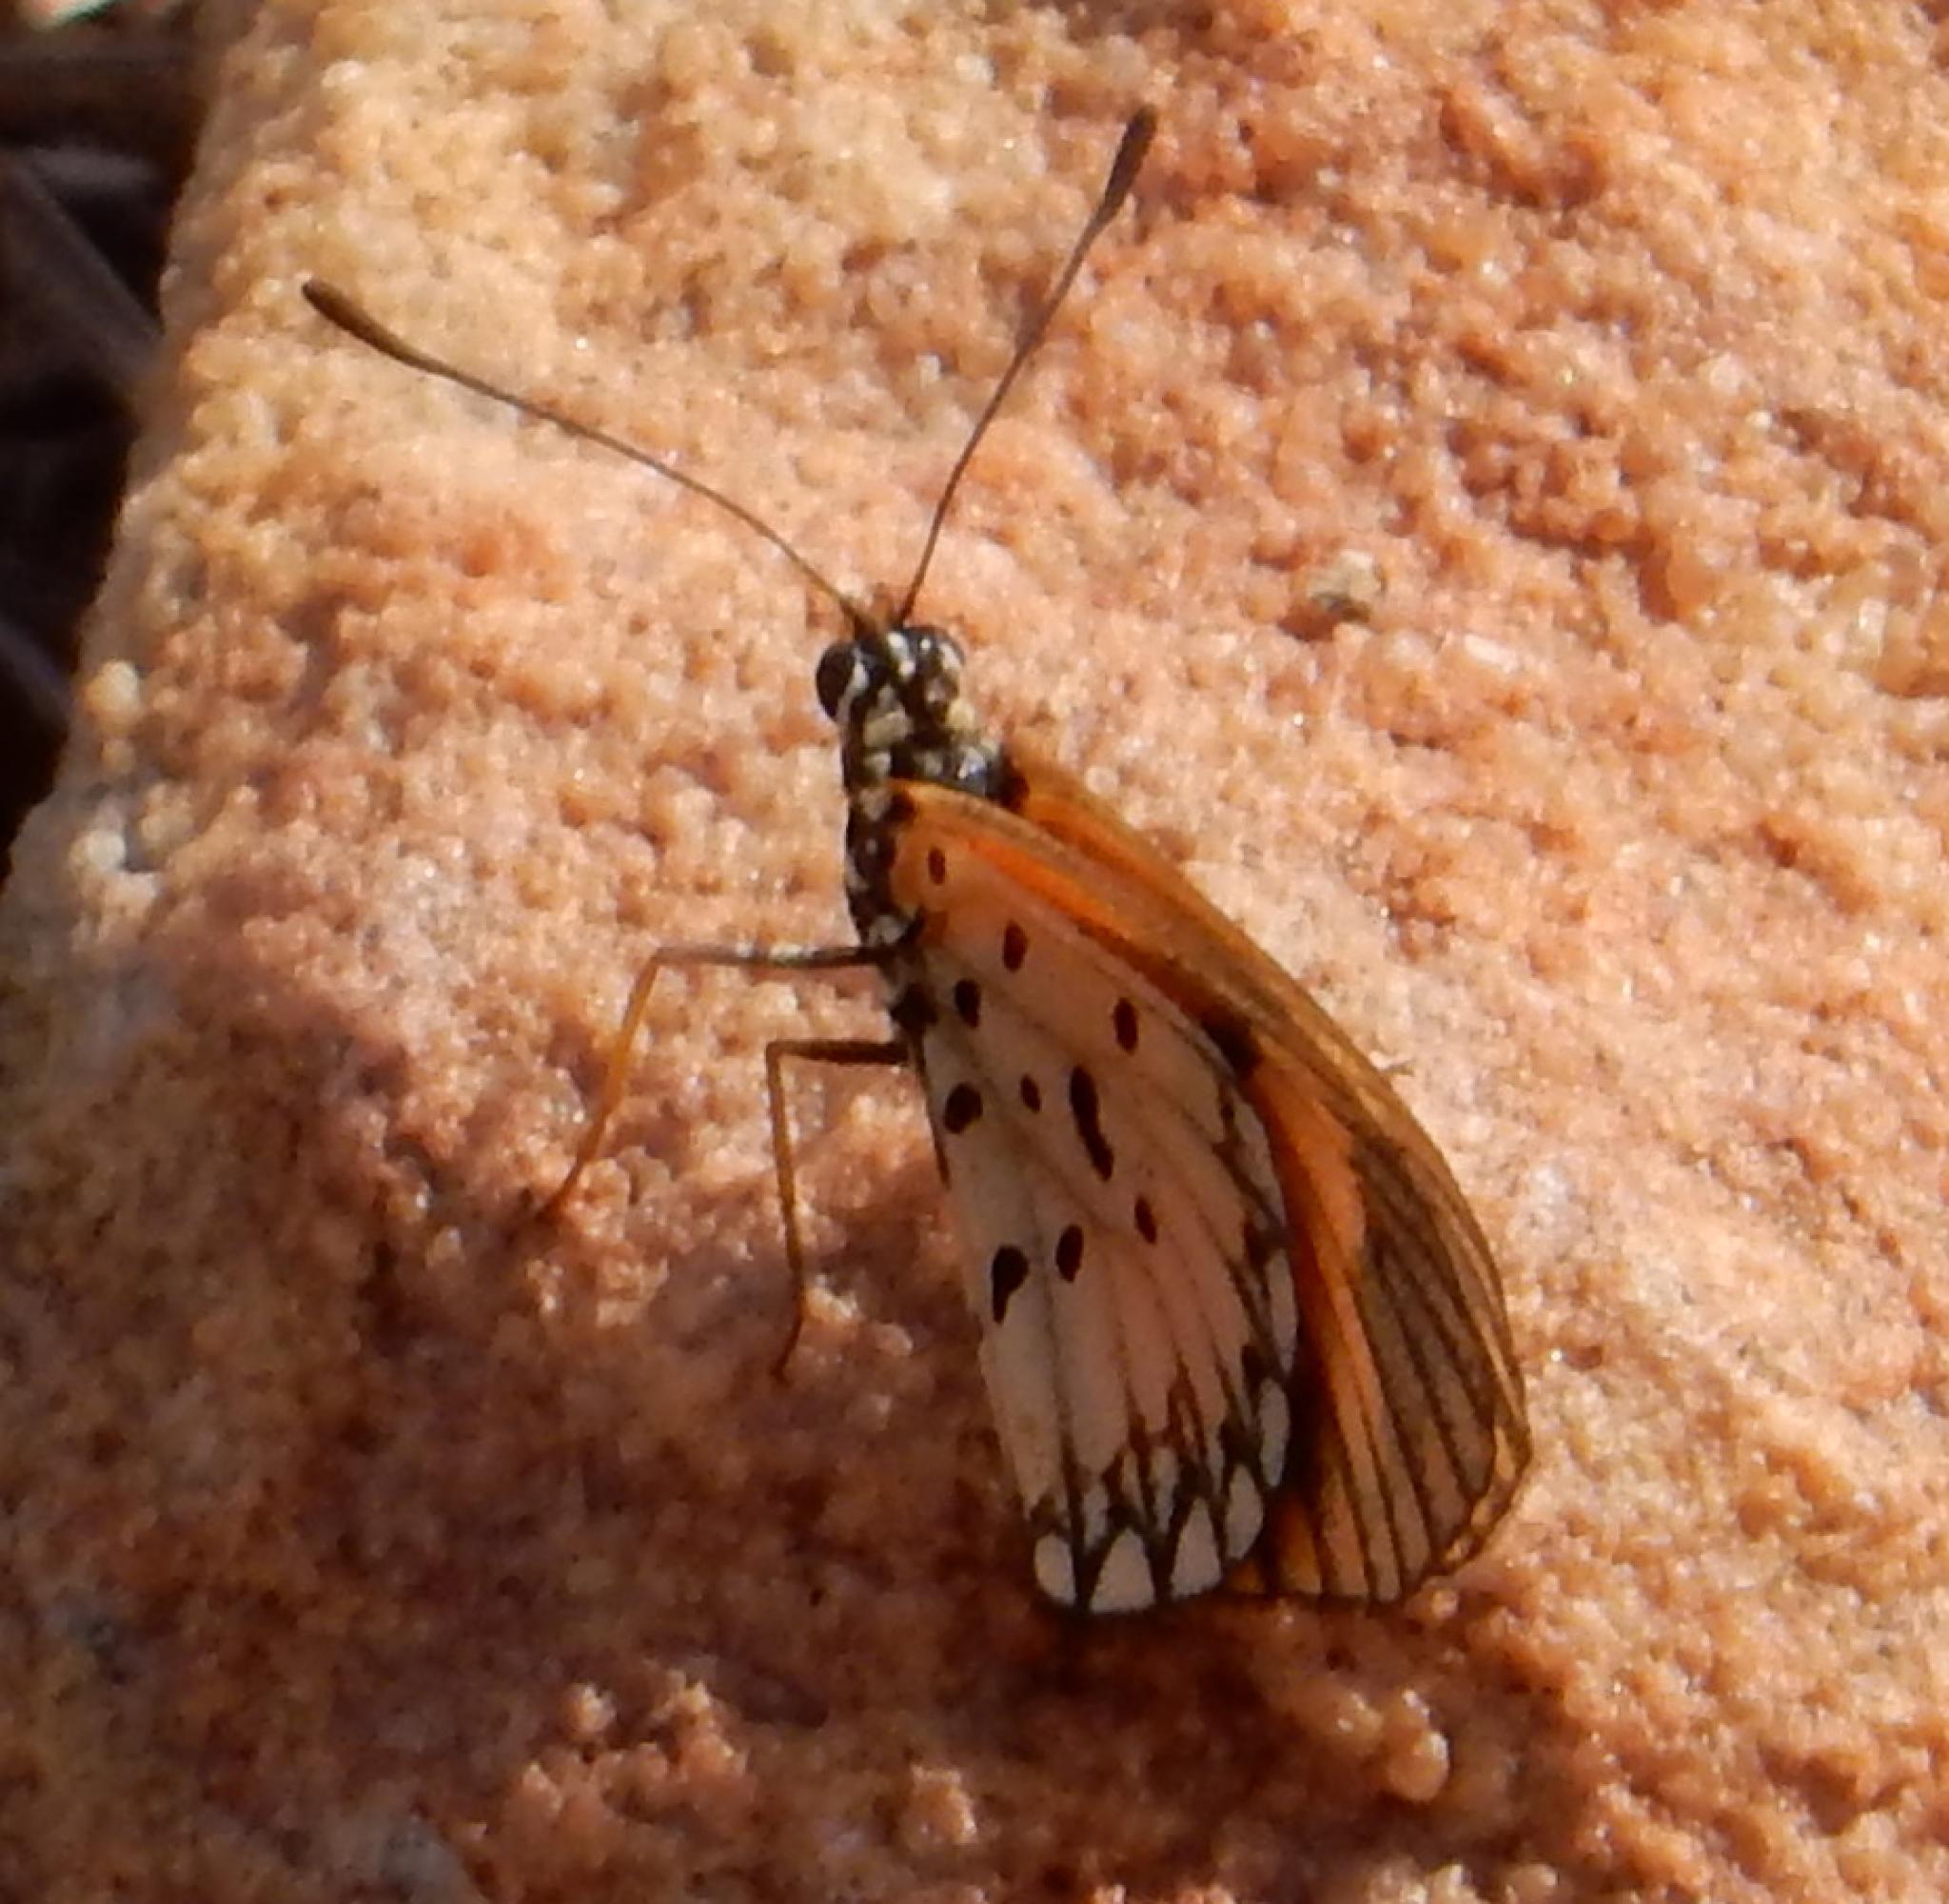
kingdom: Animalia
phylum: Arthropoda
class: Insecta
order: Lepidoptera
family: Nymphalidae
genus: Acraea
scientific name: Acraea Telchinia serena
